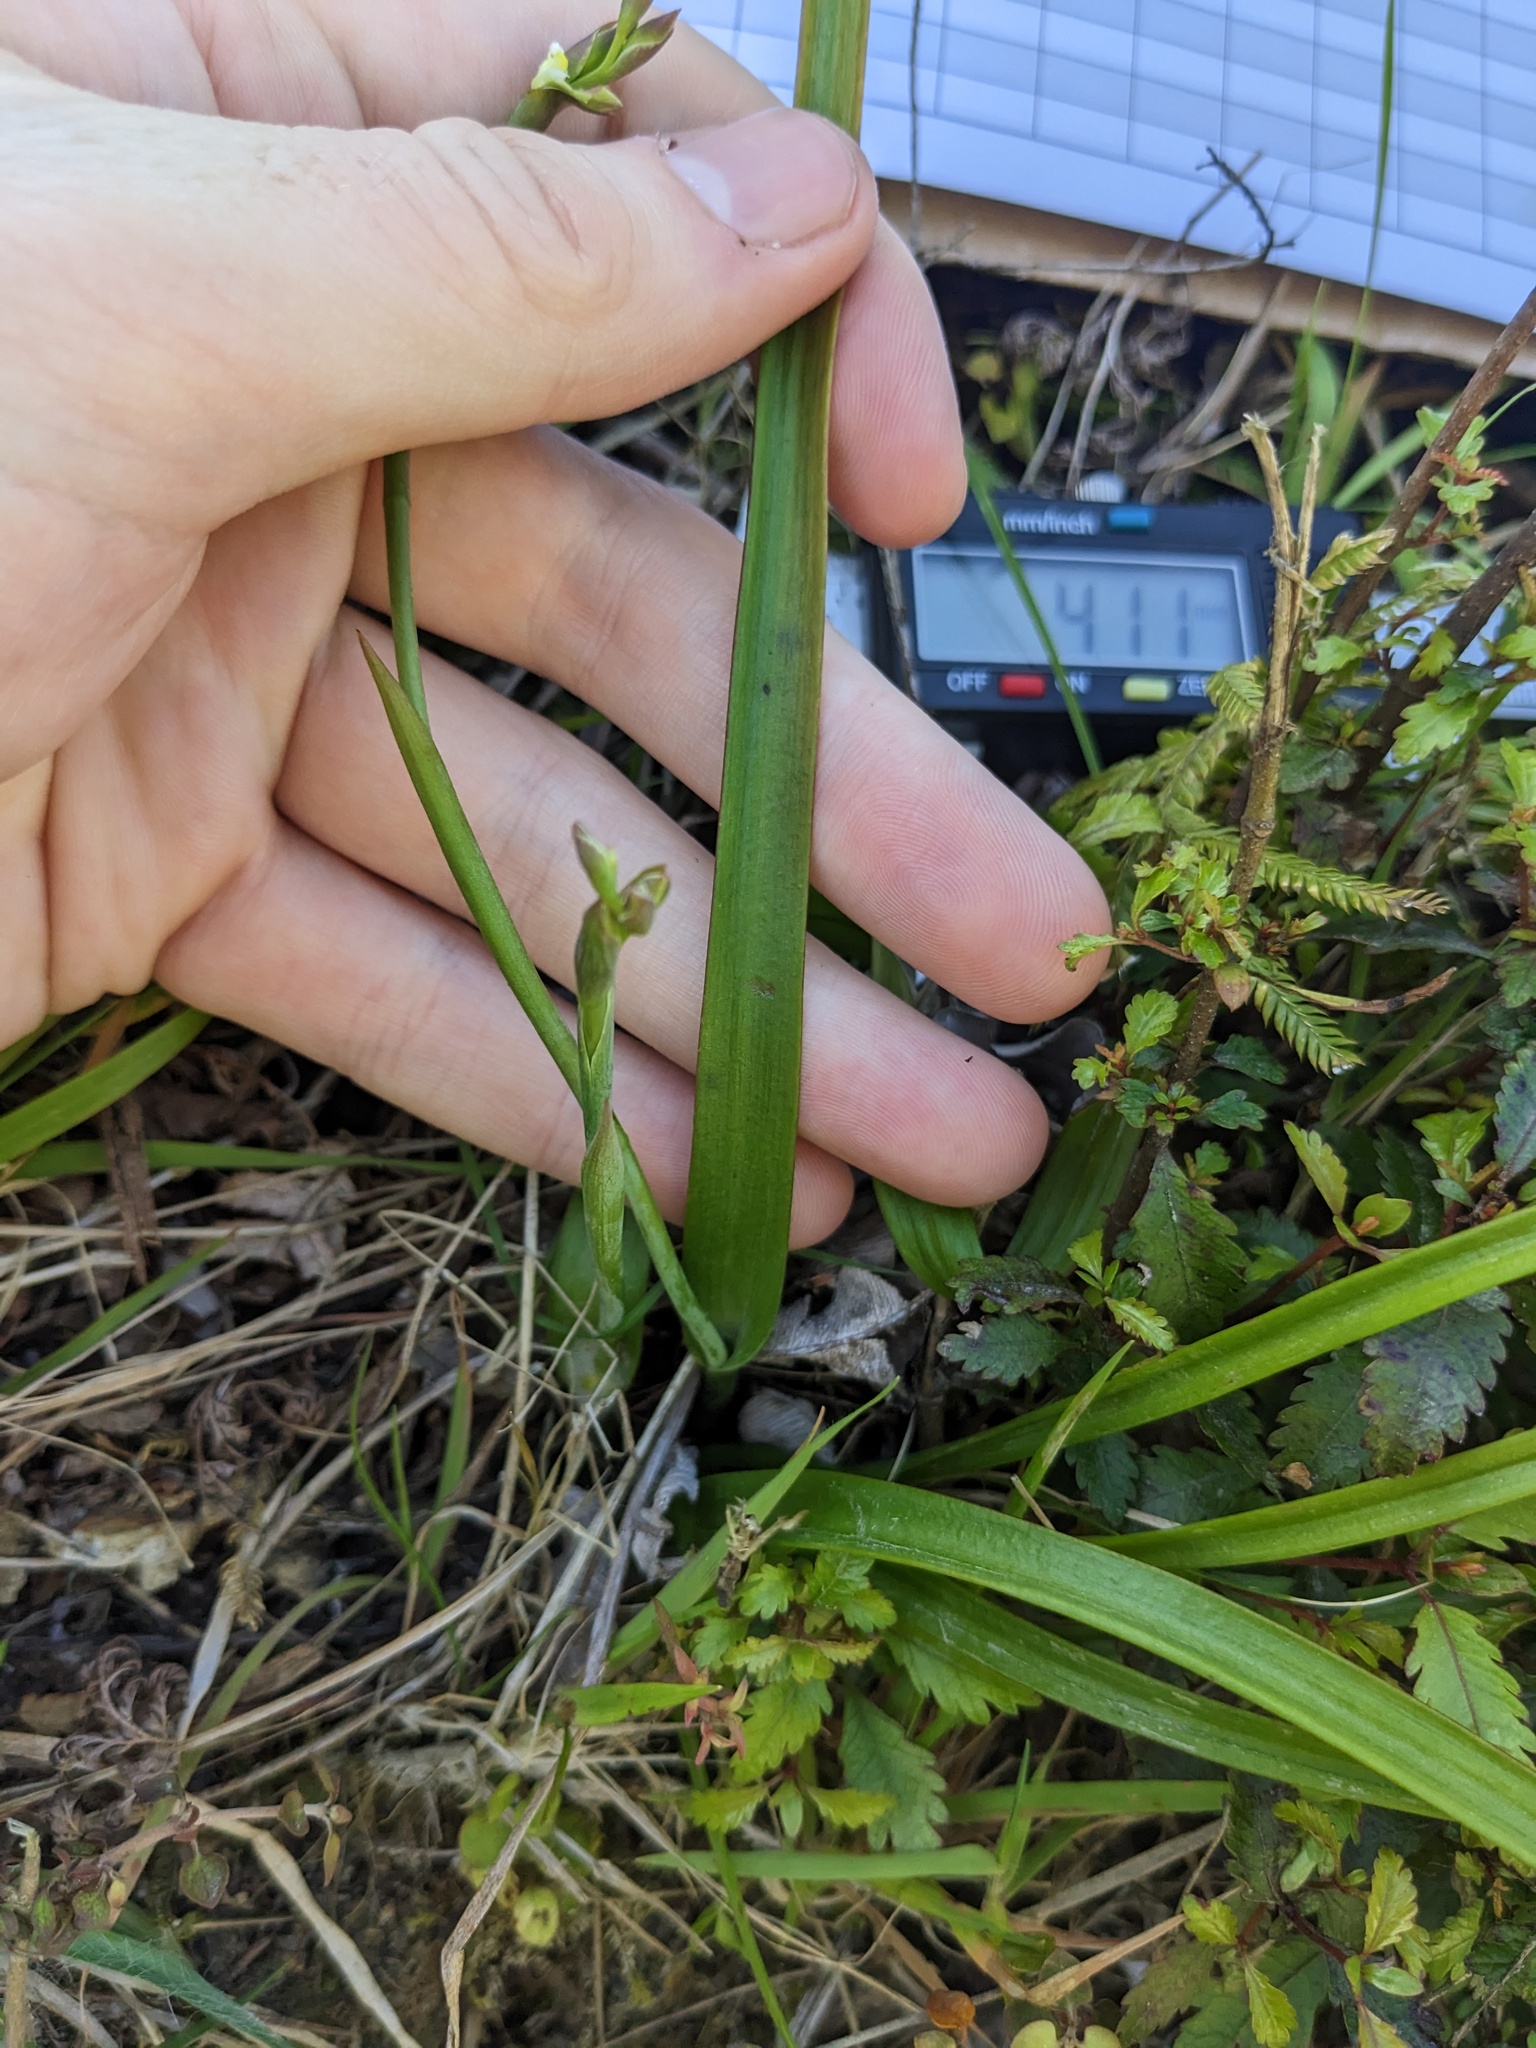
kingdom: Plantae
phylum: Tracheophyta
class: Liliopsida
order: Asparagales
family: Orchidaceae
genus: Thelymitra
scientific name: Thelymitra longifolia
